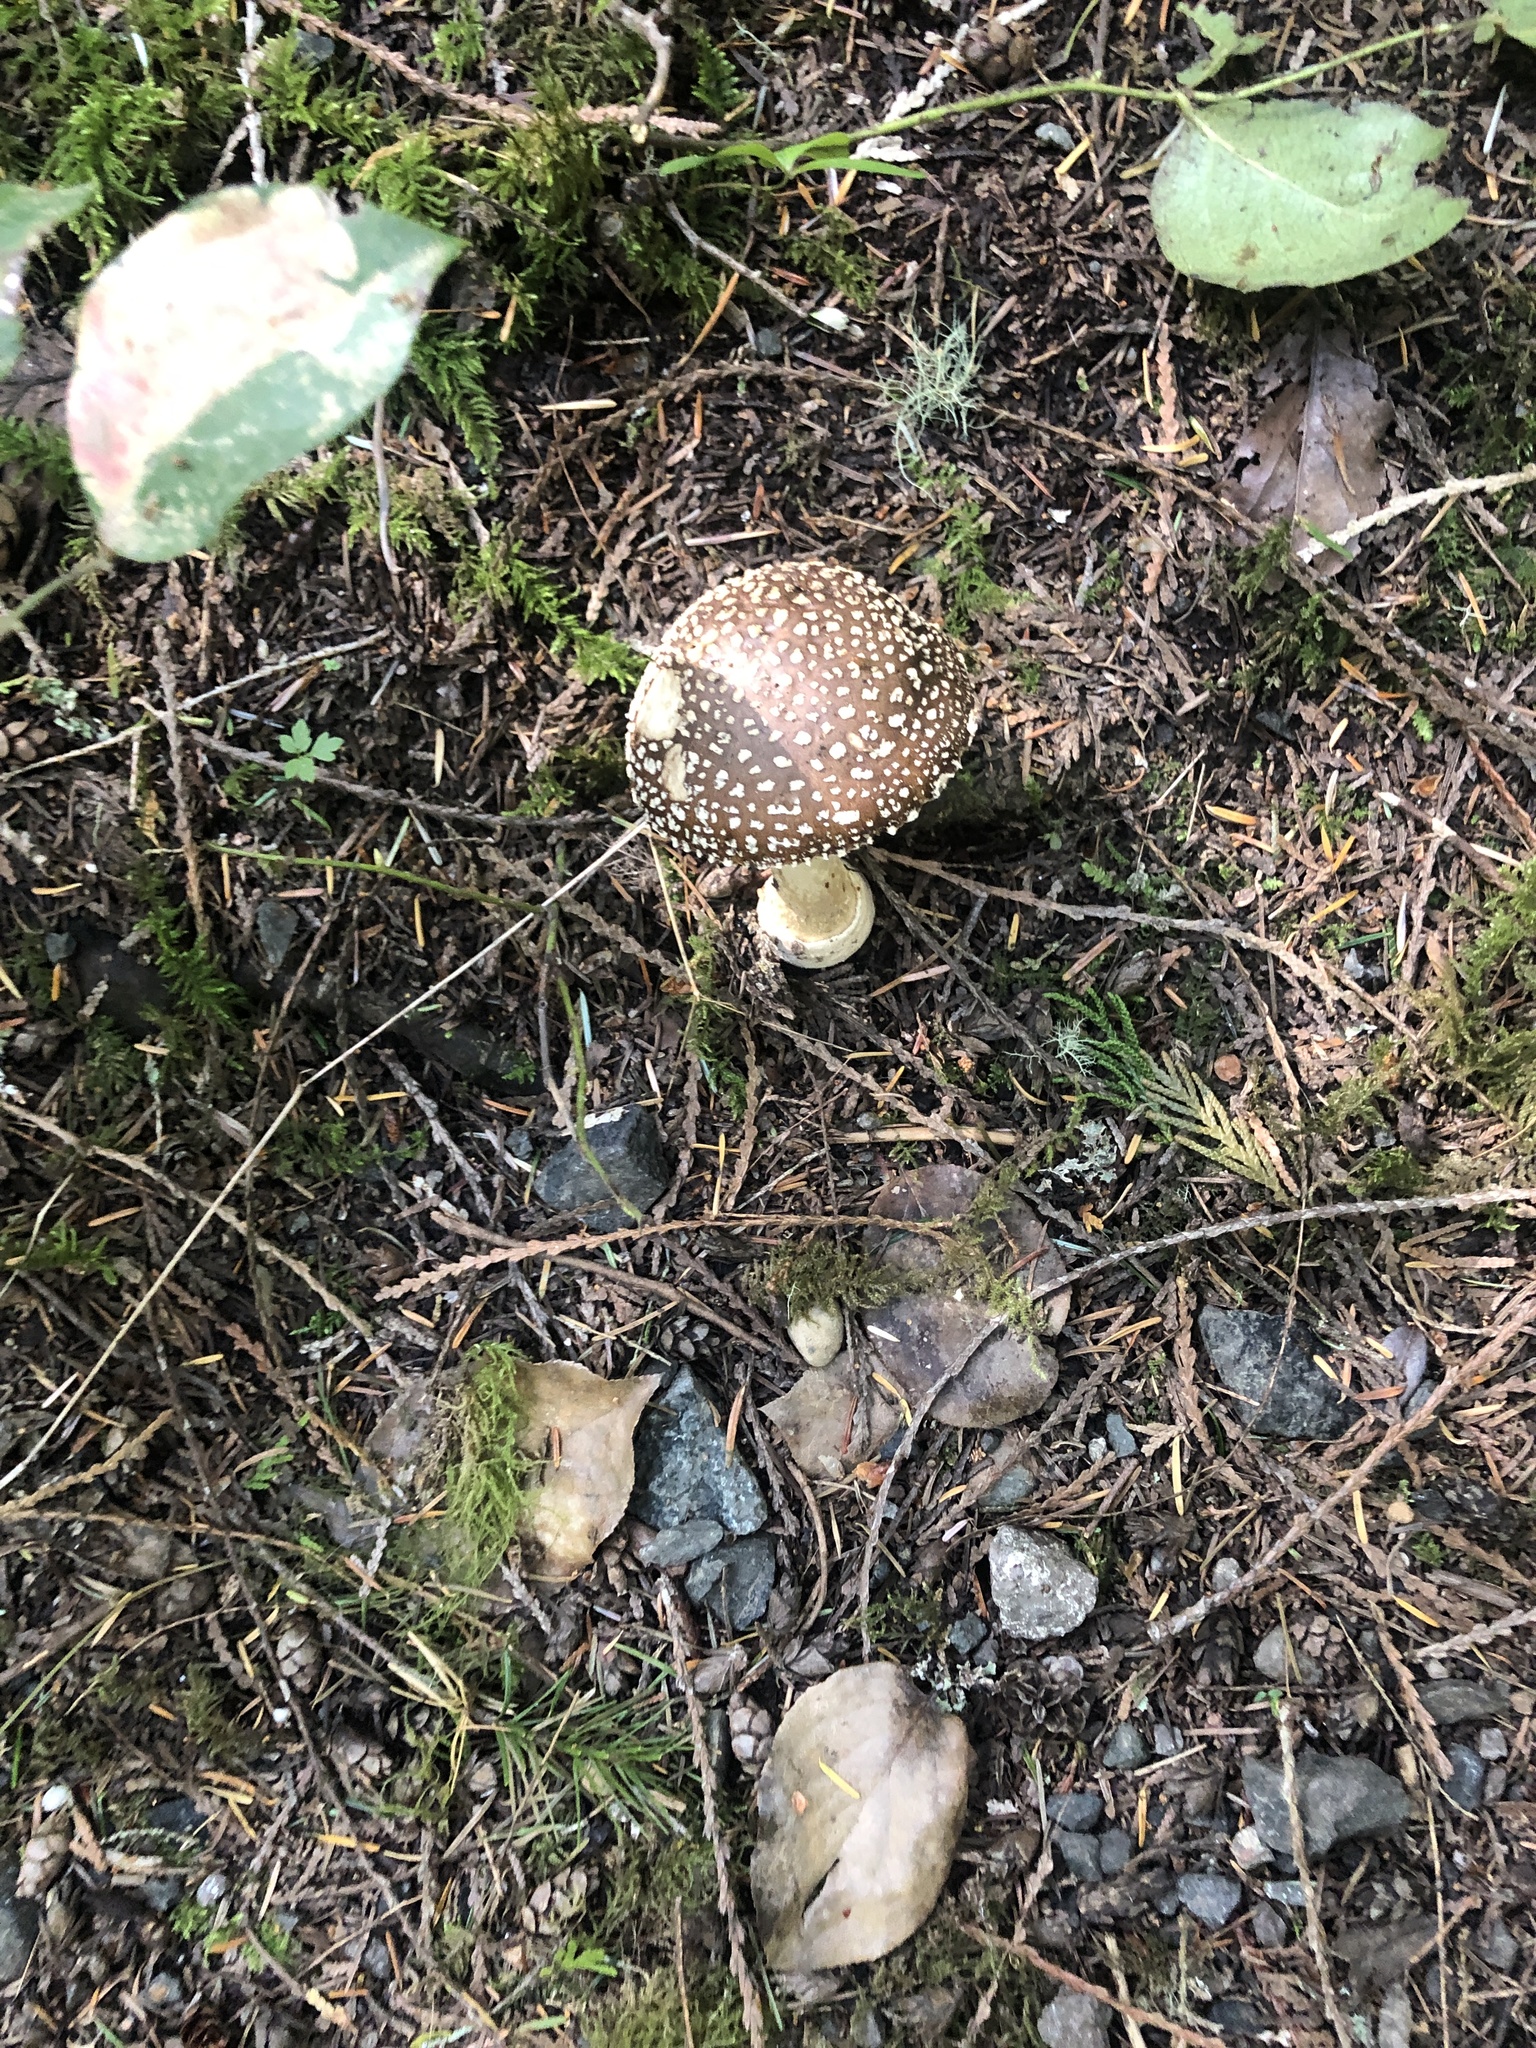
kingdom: Fungi
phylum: Basidiomycota
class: Agaricomycetes
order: Agaricales
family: Amanitaceae
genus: Amanita
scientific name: Amanita pantherina
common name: Panthercap
